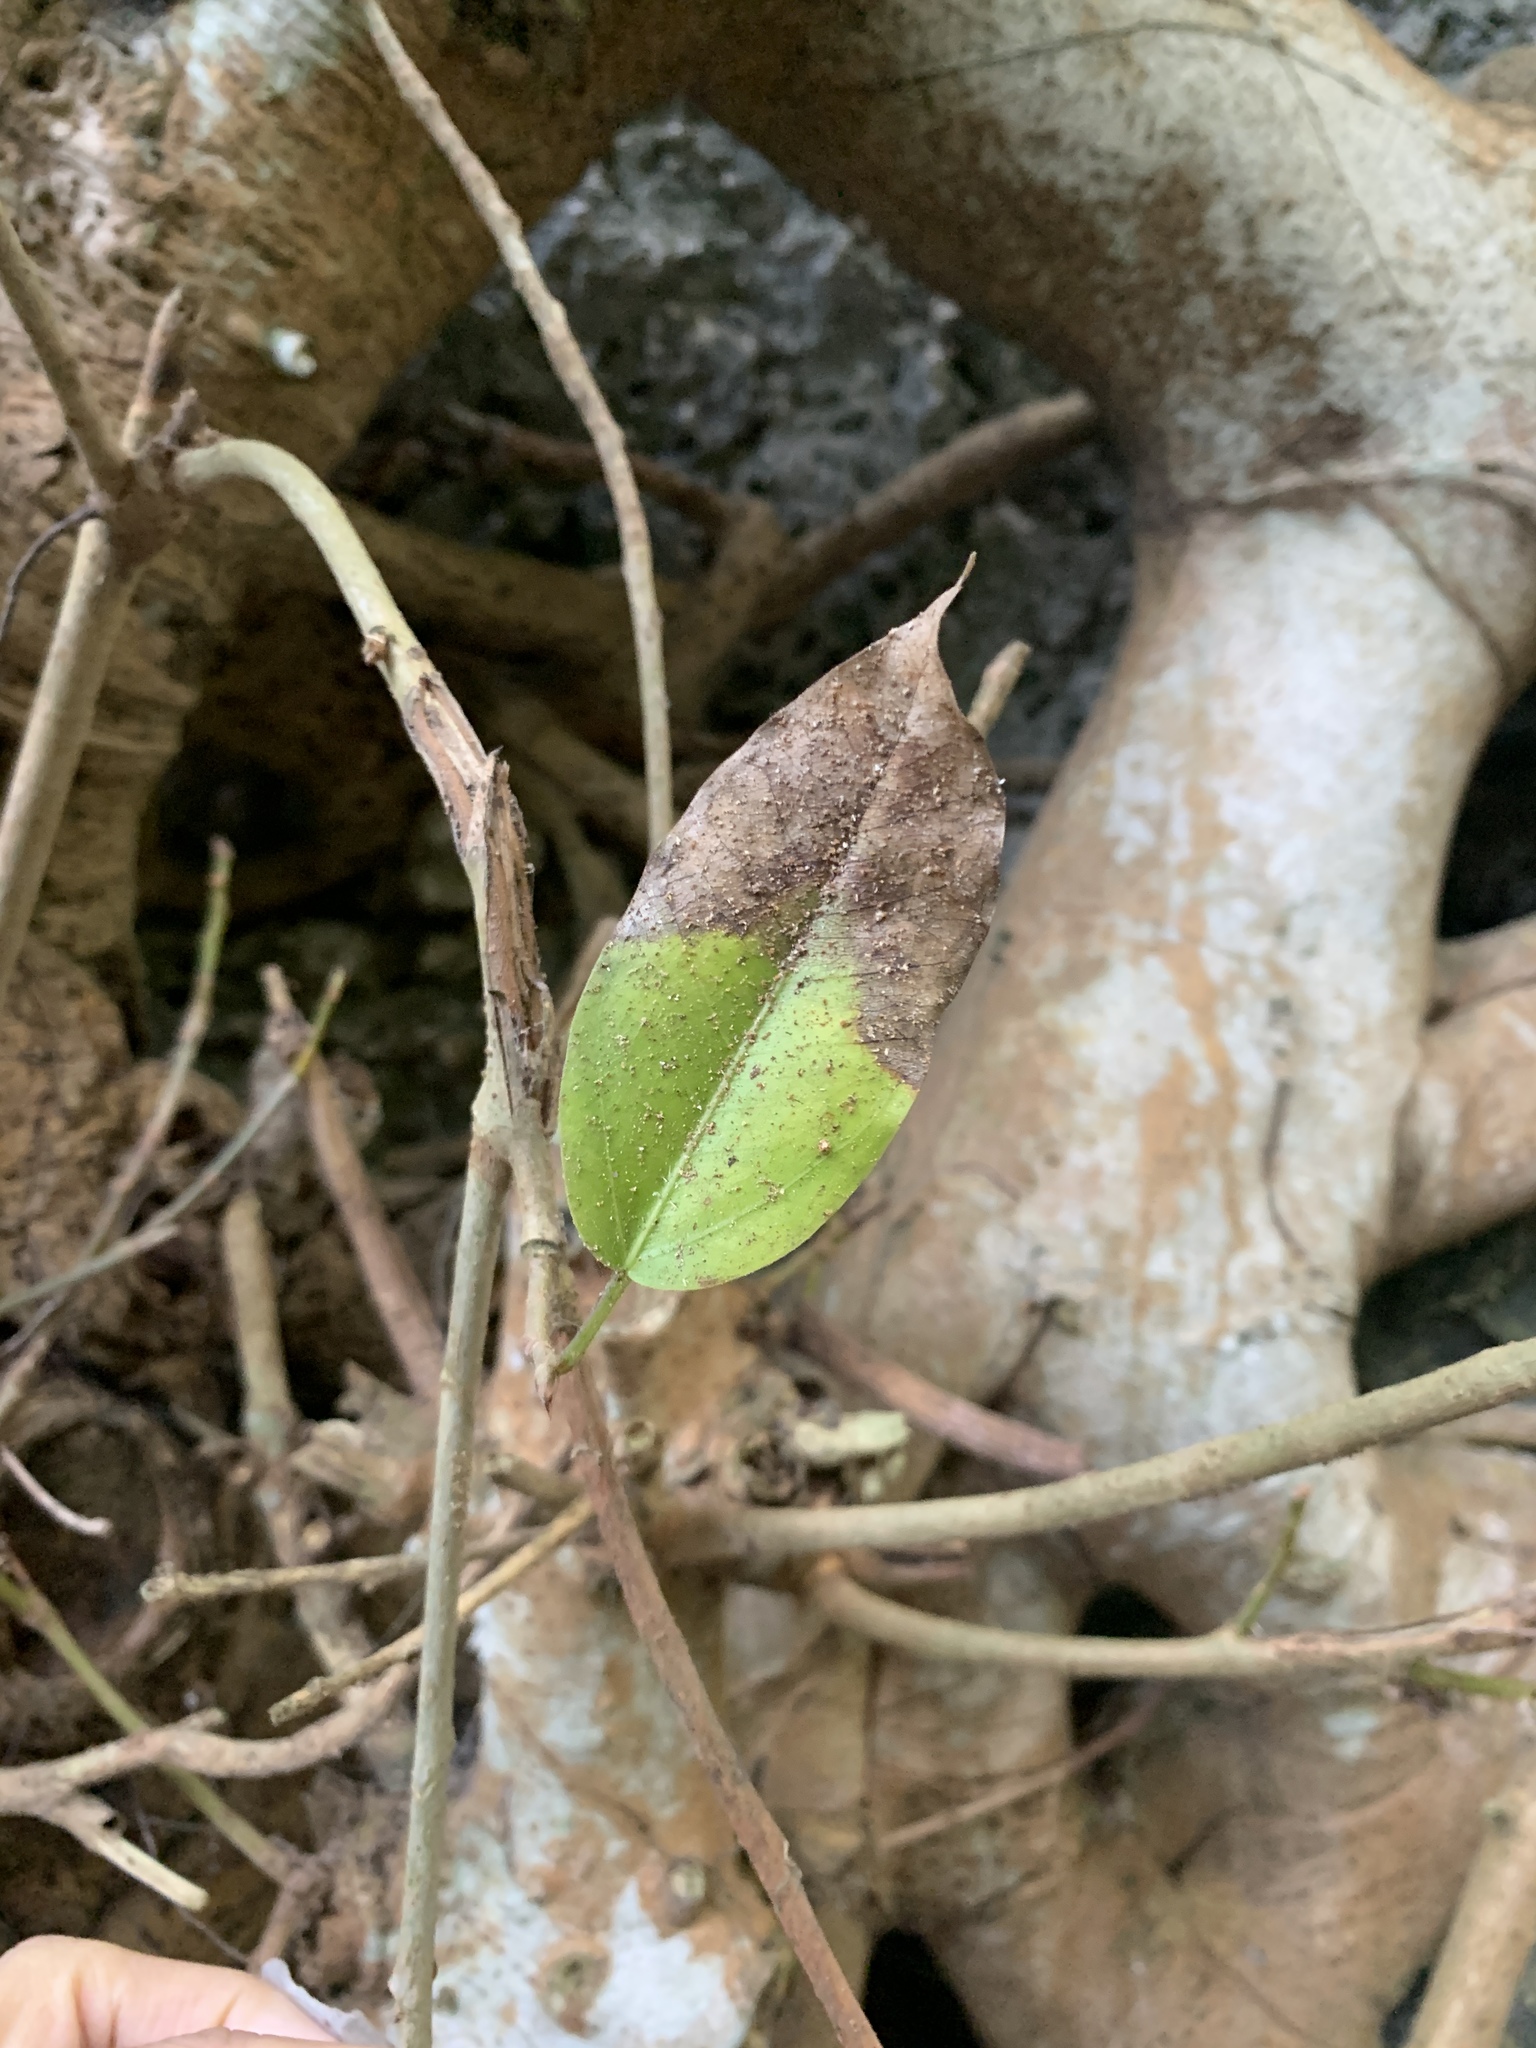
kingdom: Plantae
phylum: Tracheophyta
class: Magnoliopsida
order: Rosales
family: Moraceae
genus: Ficus
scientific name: Ficus subpisocarpa
